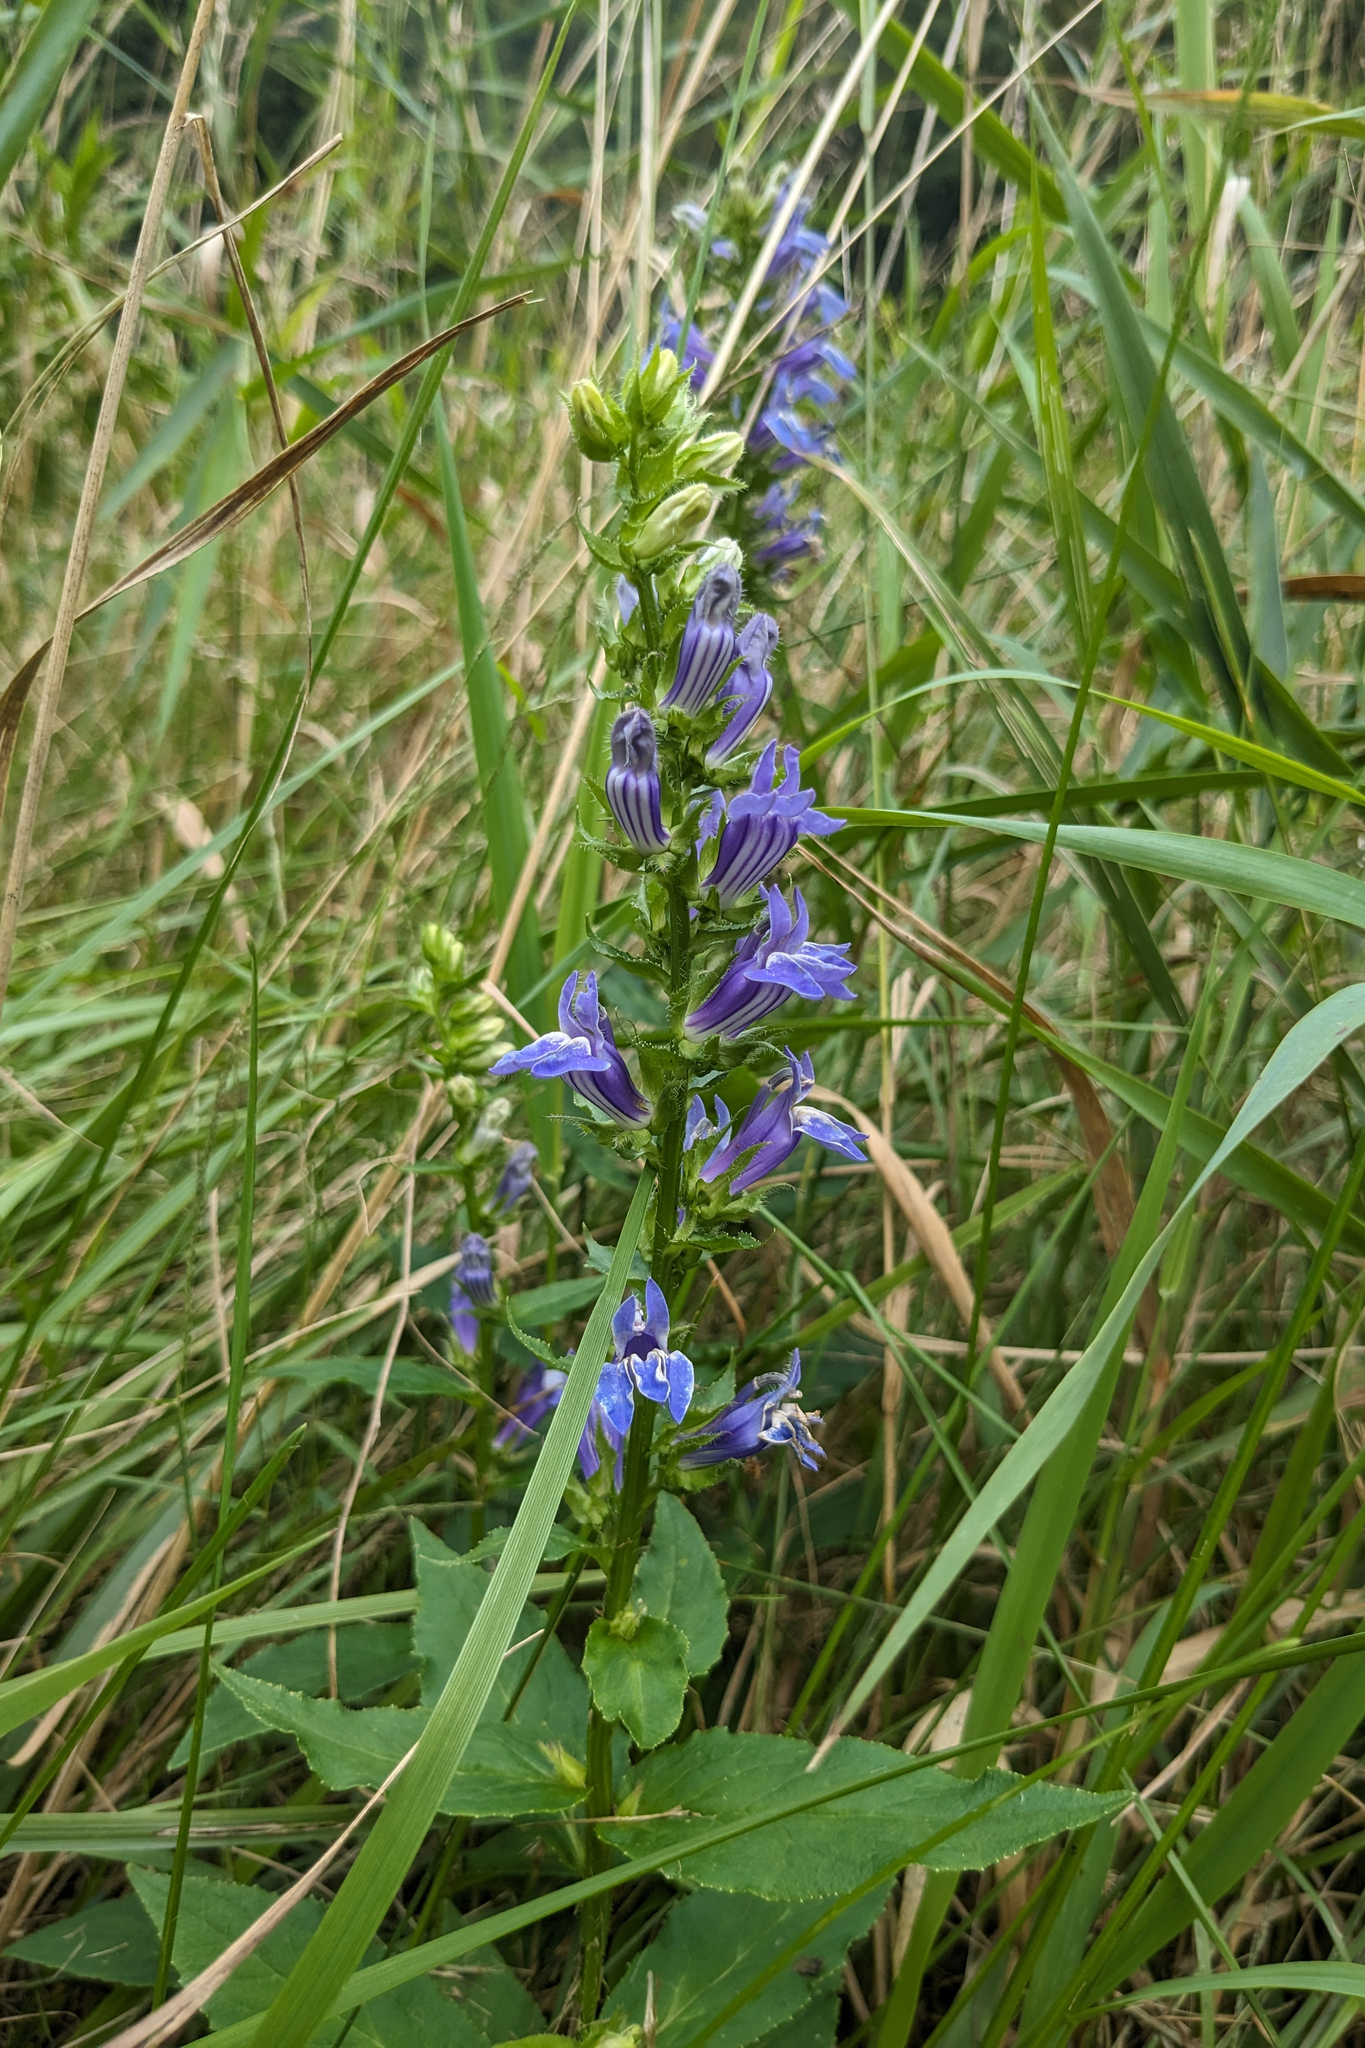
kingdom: Plantae
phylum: Tracheophyta
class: Magnoliopsida
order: Asterales
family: Campanulaceae
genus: Lobelia
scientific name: Lobelia siphilitica
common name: Great lobelia
